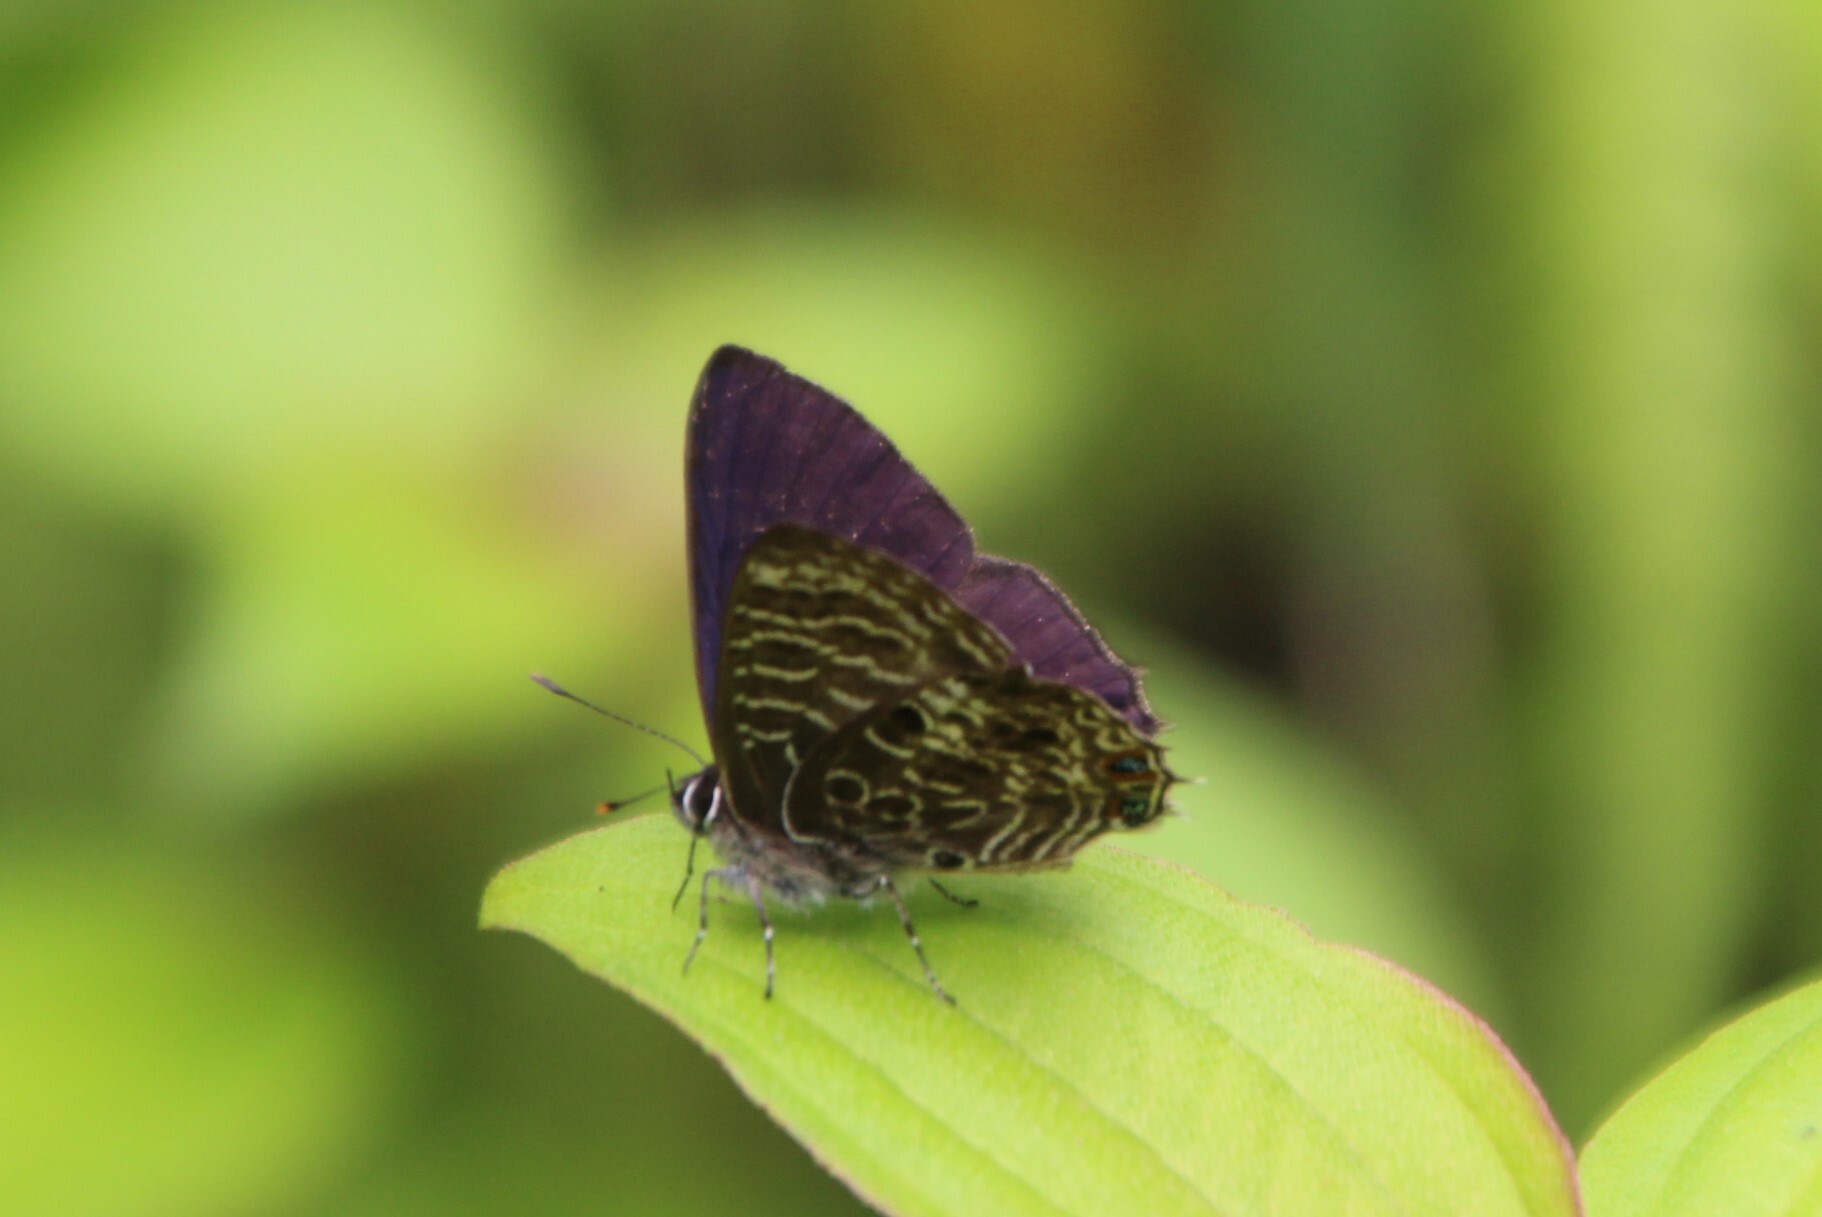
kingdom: Animalia
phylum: Arthropoda
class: Insecta
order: Lepidoptera
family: Lycaenidae
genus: Anthene
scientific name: Anthene larydas
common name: Forest hairtail
